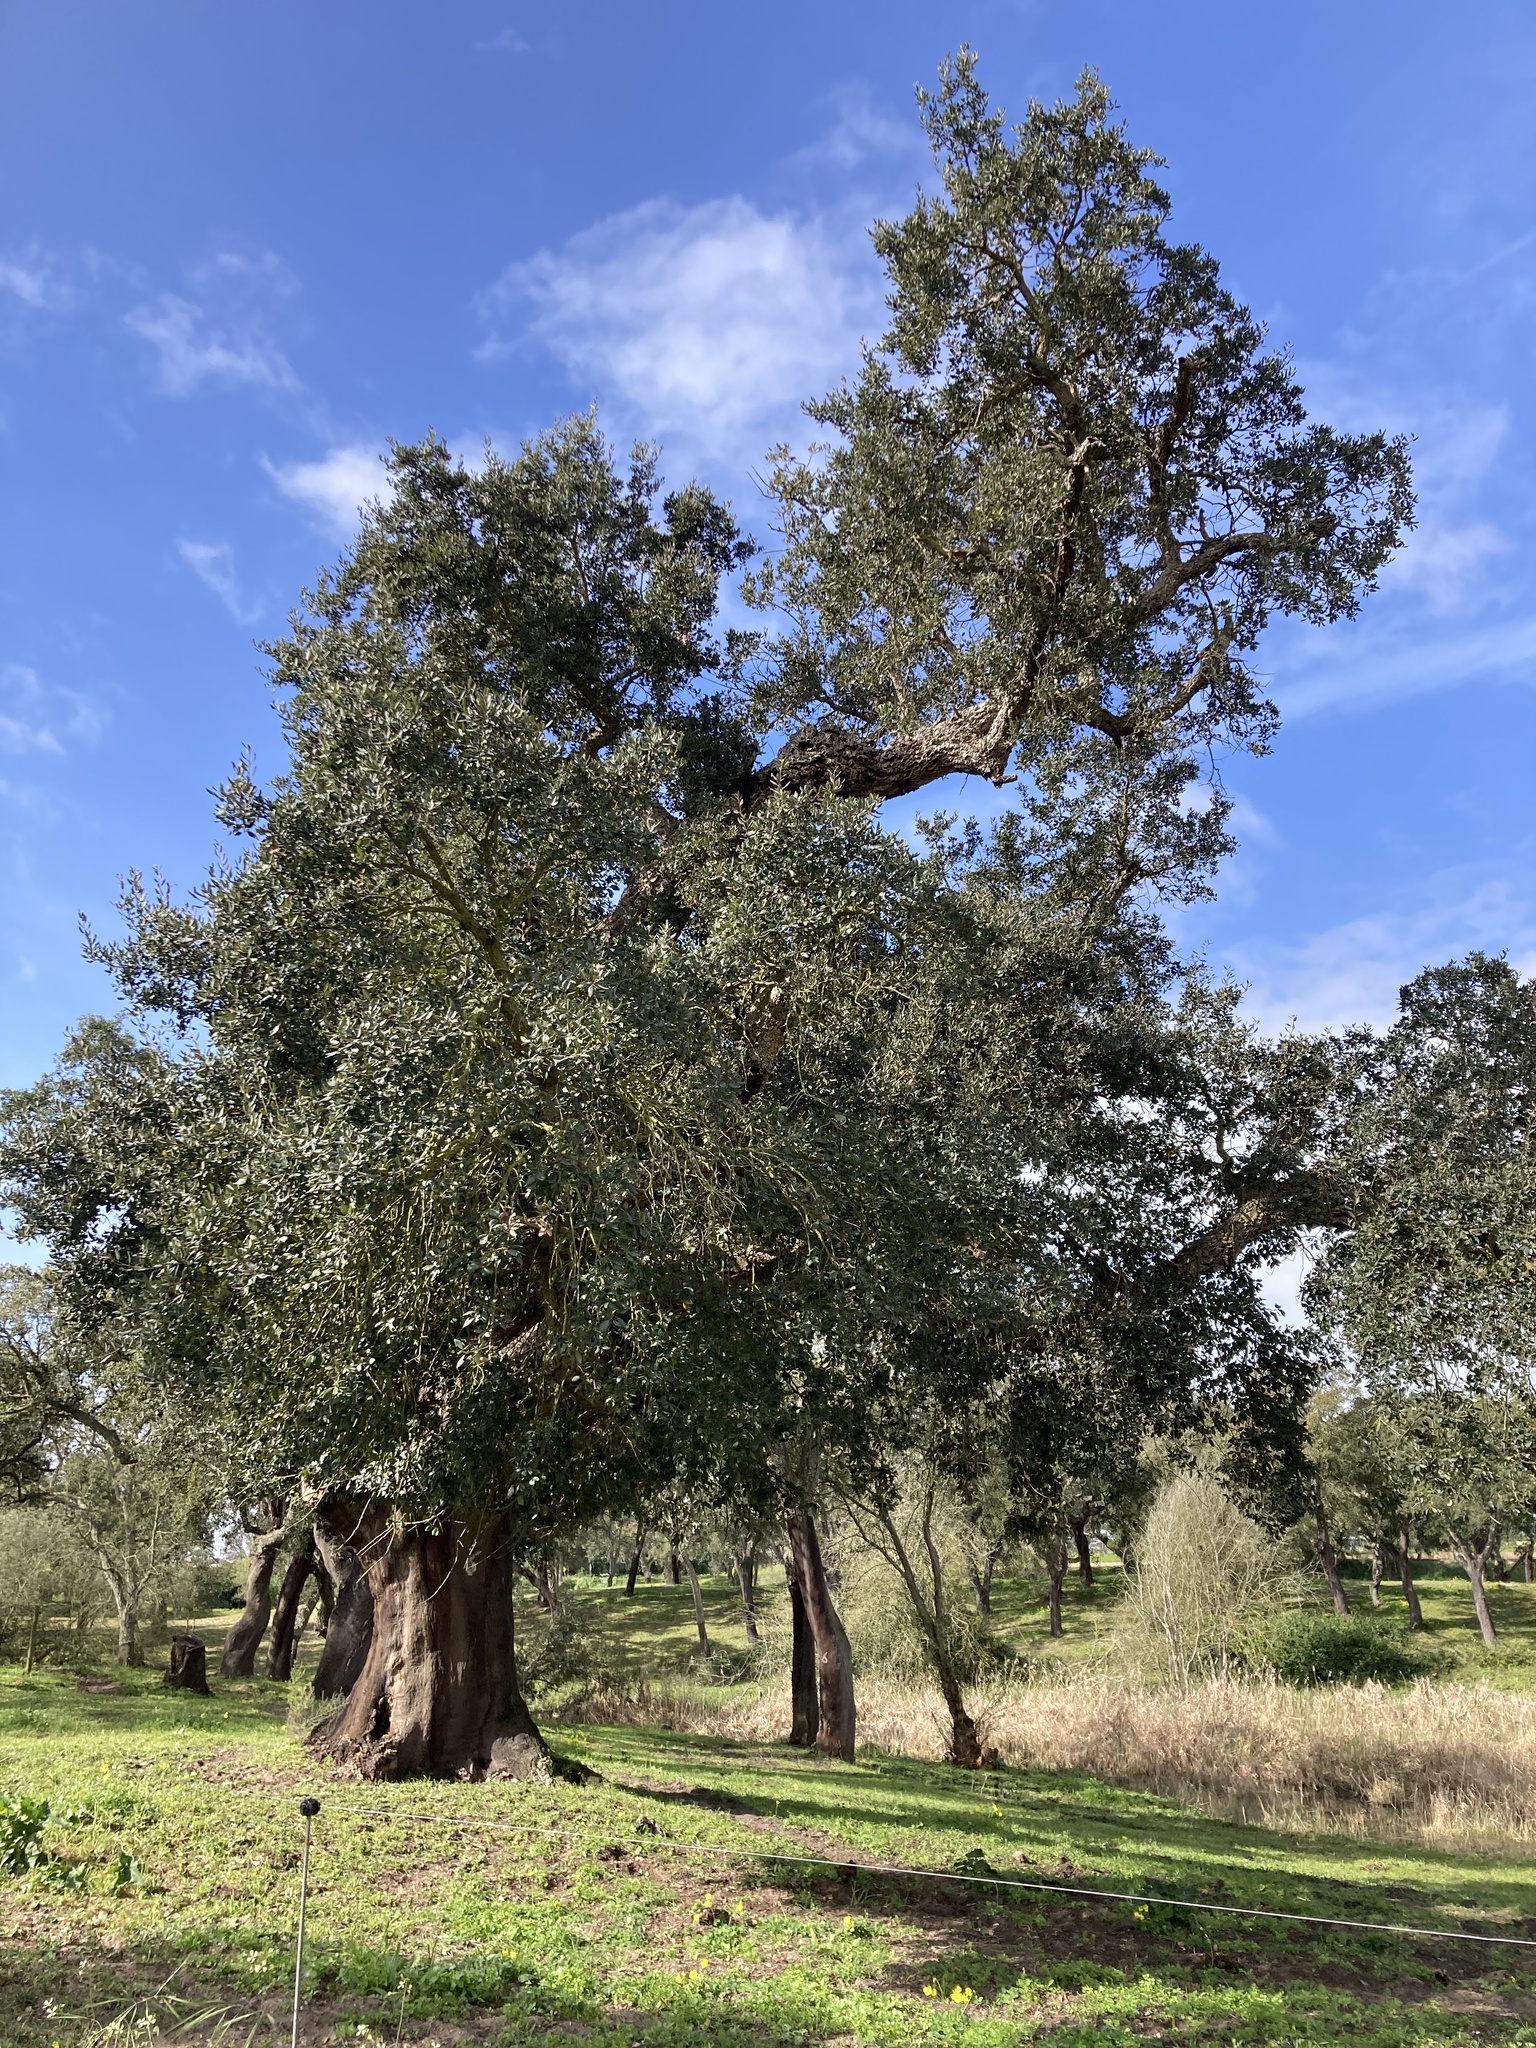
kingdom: Plantae
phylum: Tracheophyta
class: Magnoliopsida
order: Fagales
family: Fagaceae
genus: Quercus
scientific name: Quercus suber
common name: Cork oak
